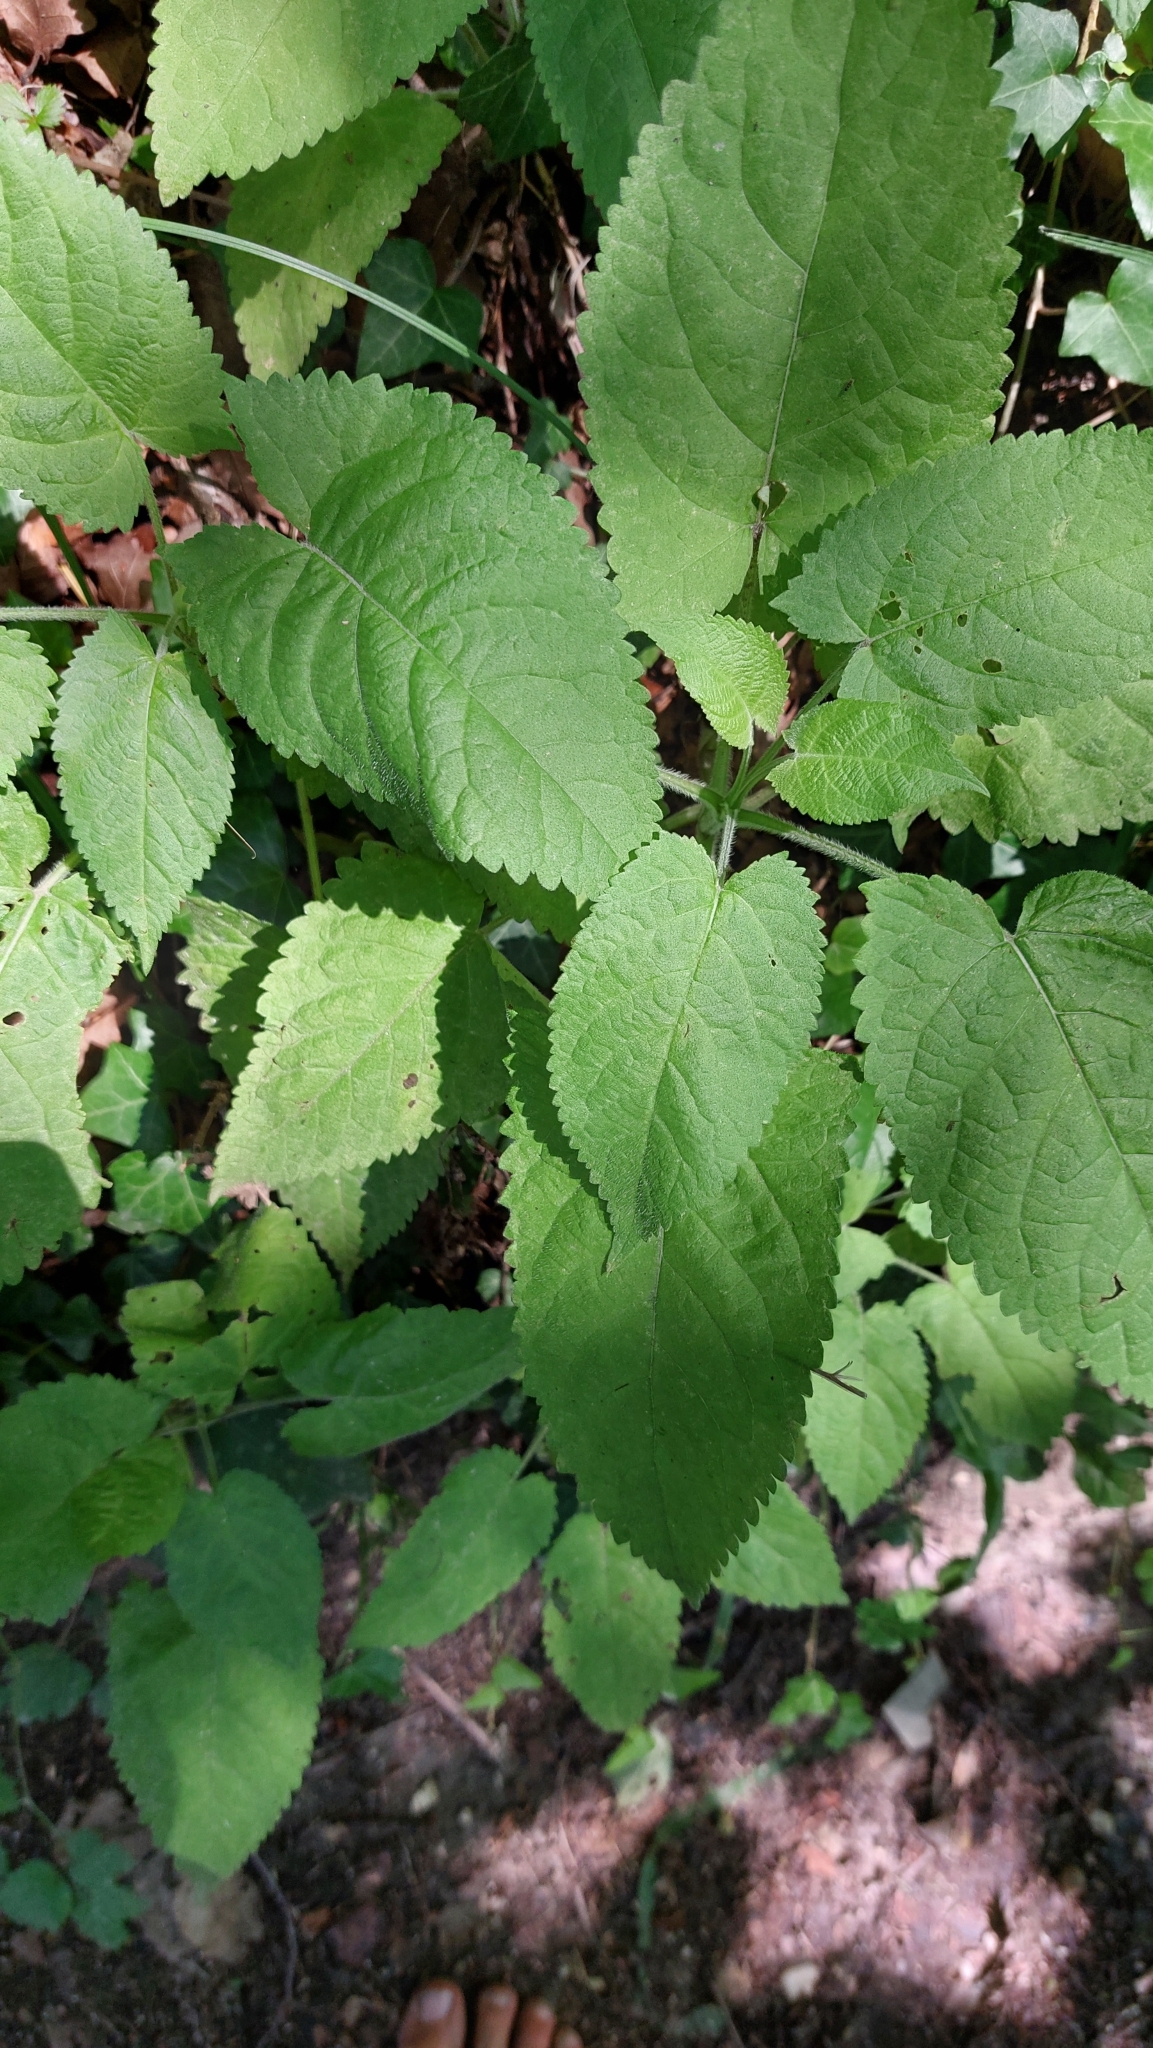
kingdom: Plantae
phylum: Tracheophyta
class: Magnoliopsida
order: Lamiales
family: Lamiaceae
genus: Stachys
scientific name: Stachys sylvatica
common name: Hedge woundwort
